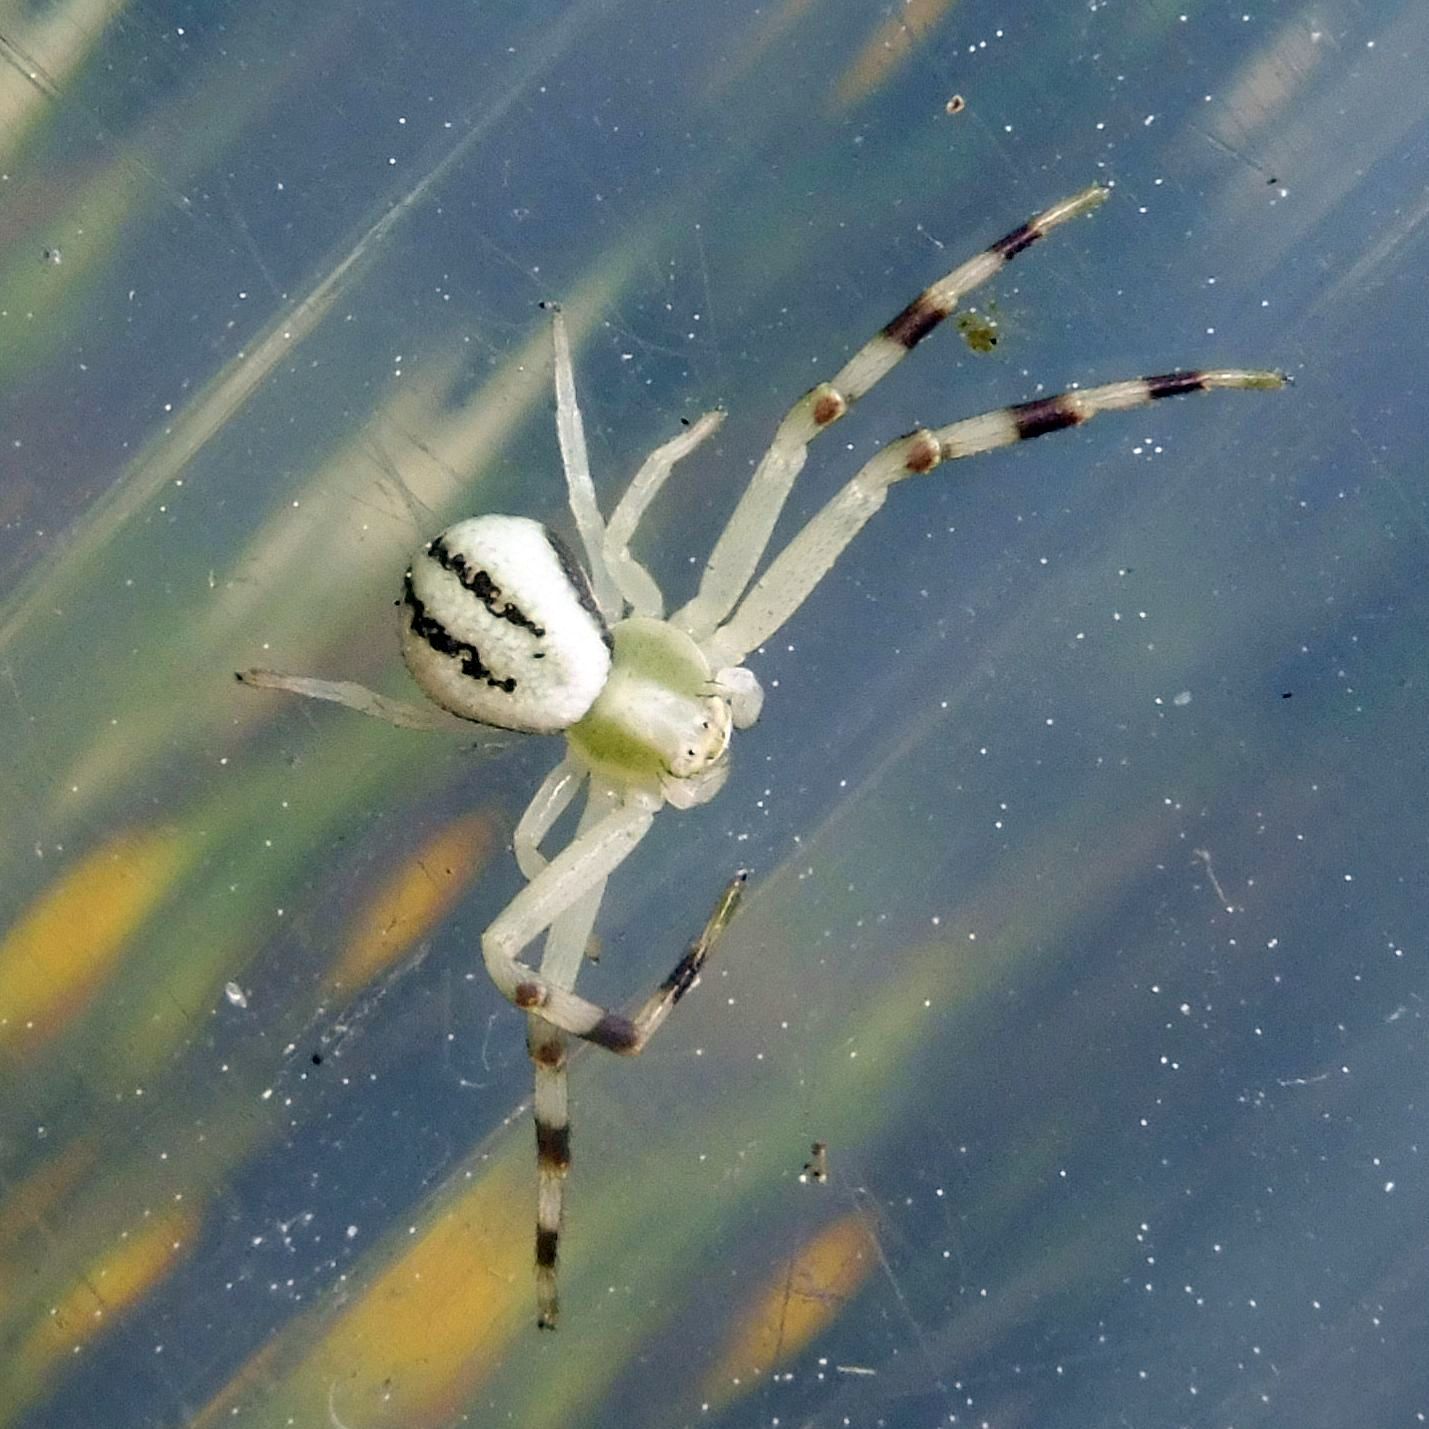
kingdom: Animalia
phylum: Arthropoda
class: Arachnida
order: Araneae
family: Thomisidae
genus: Misumena
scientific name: Misumena vatia
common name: Goldenrod crab spider
